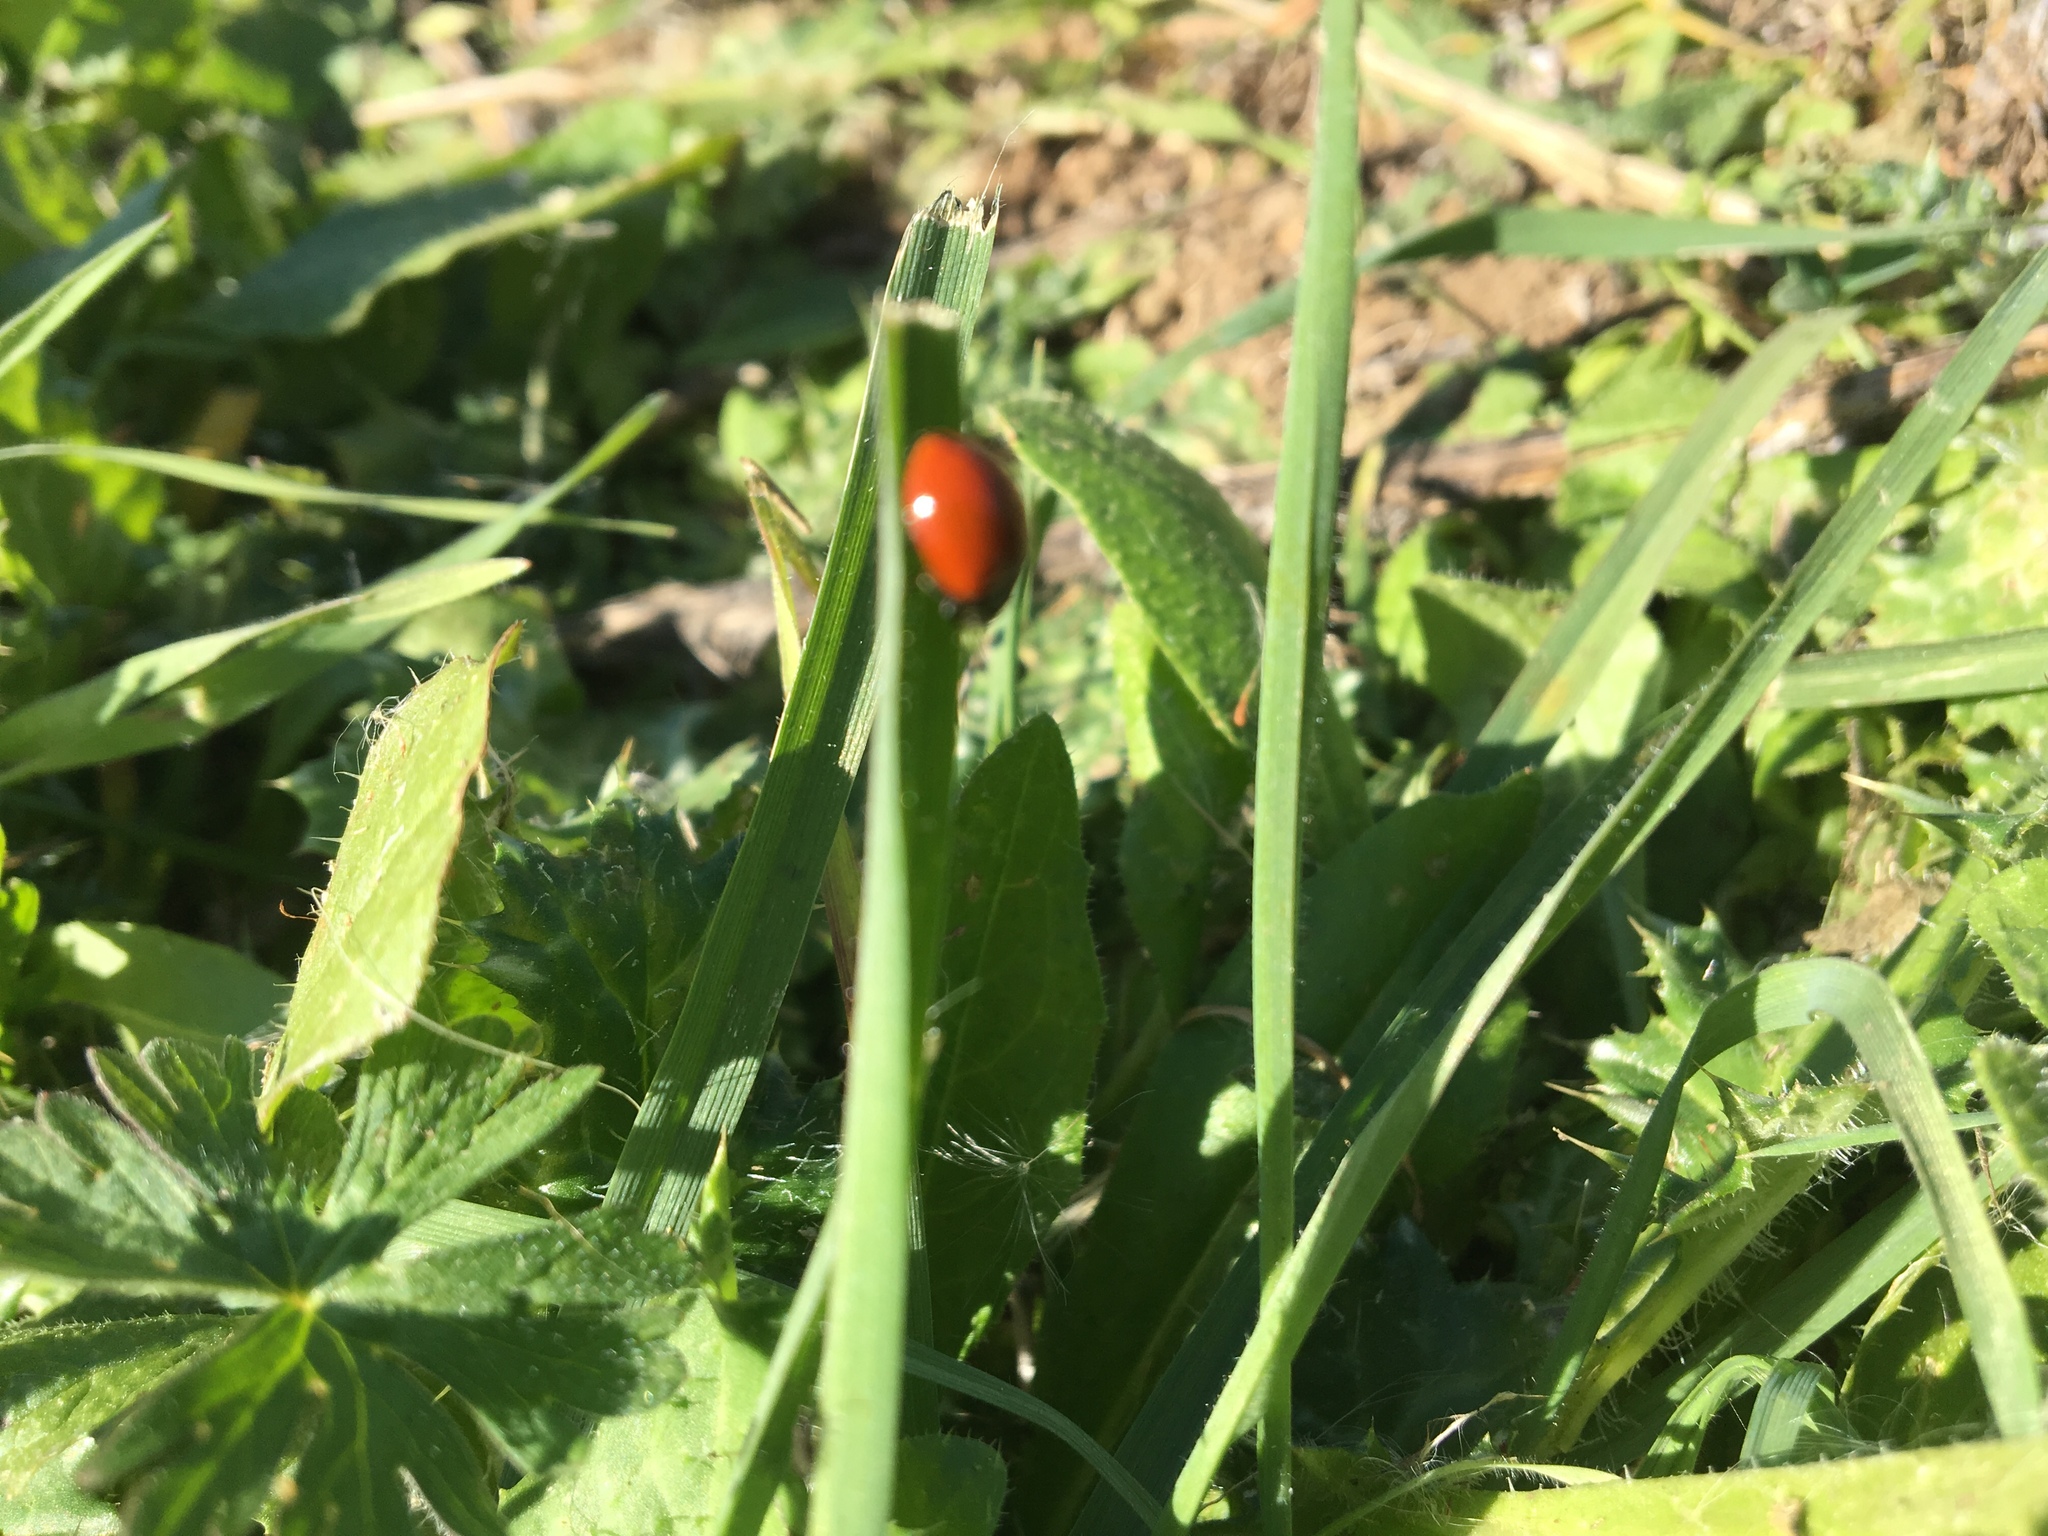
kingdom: Animalia
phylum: Arthropoda
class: Insecta
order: Coleoptera
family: Coccinellidae
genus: Cycloneda
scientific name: Cycloneda
